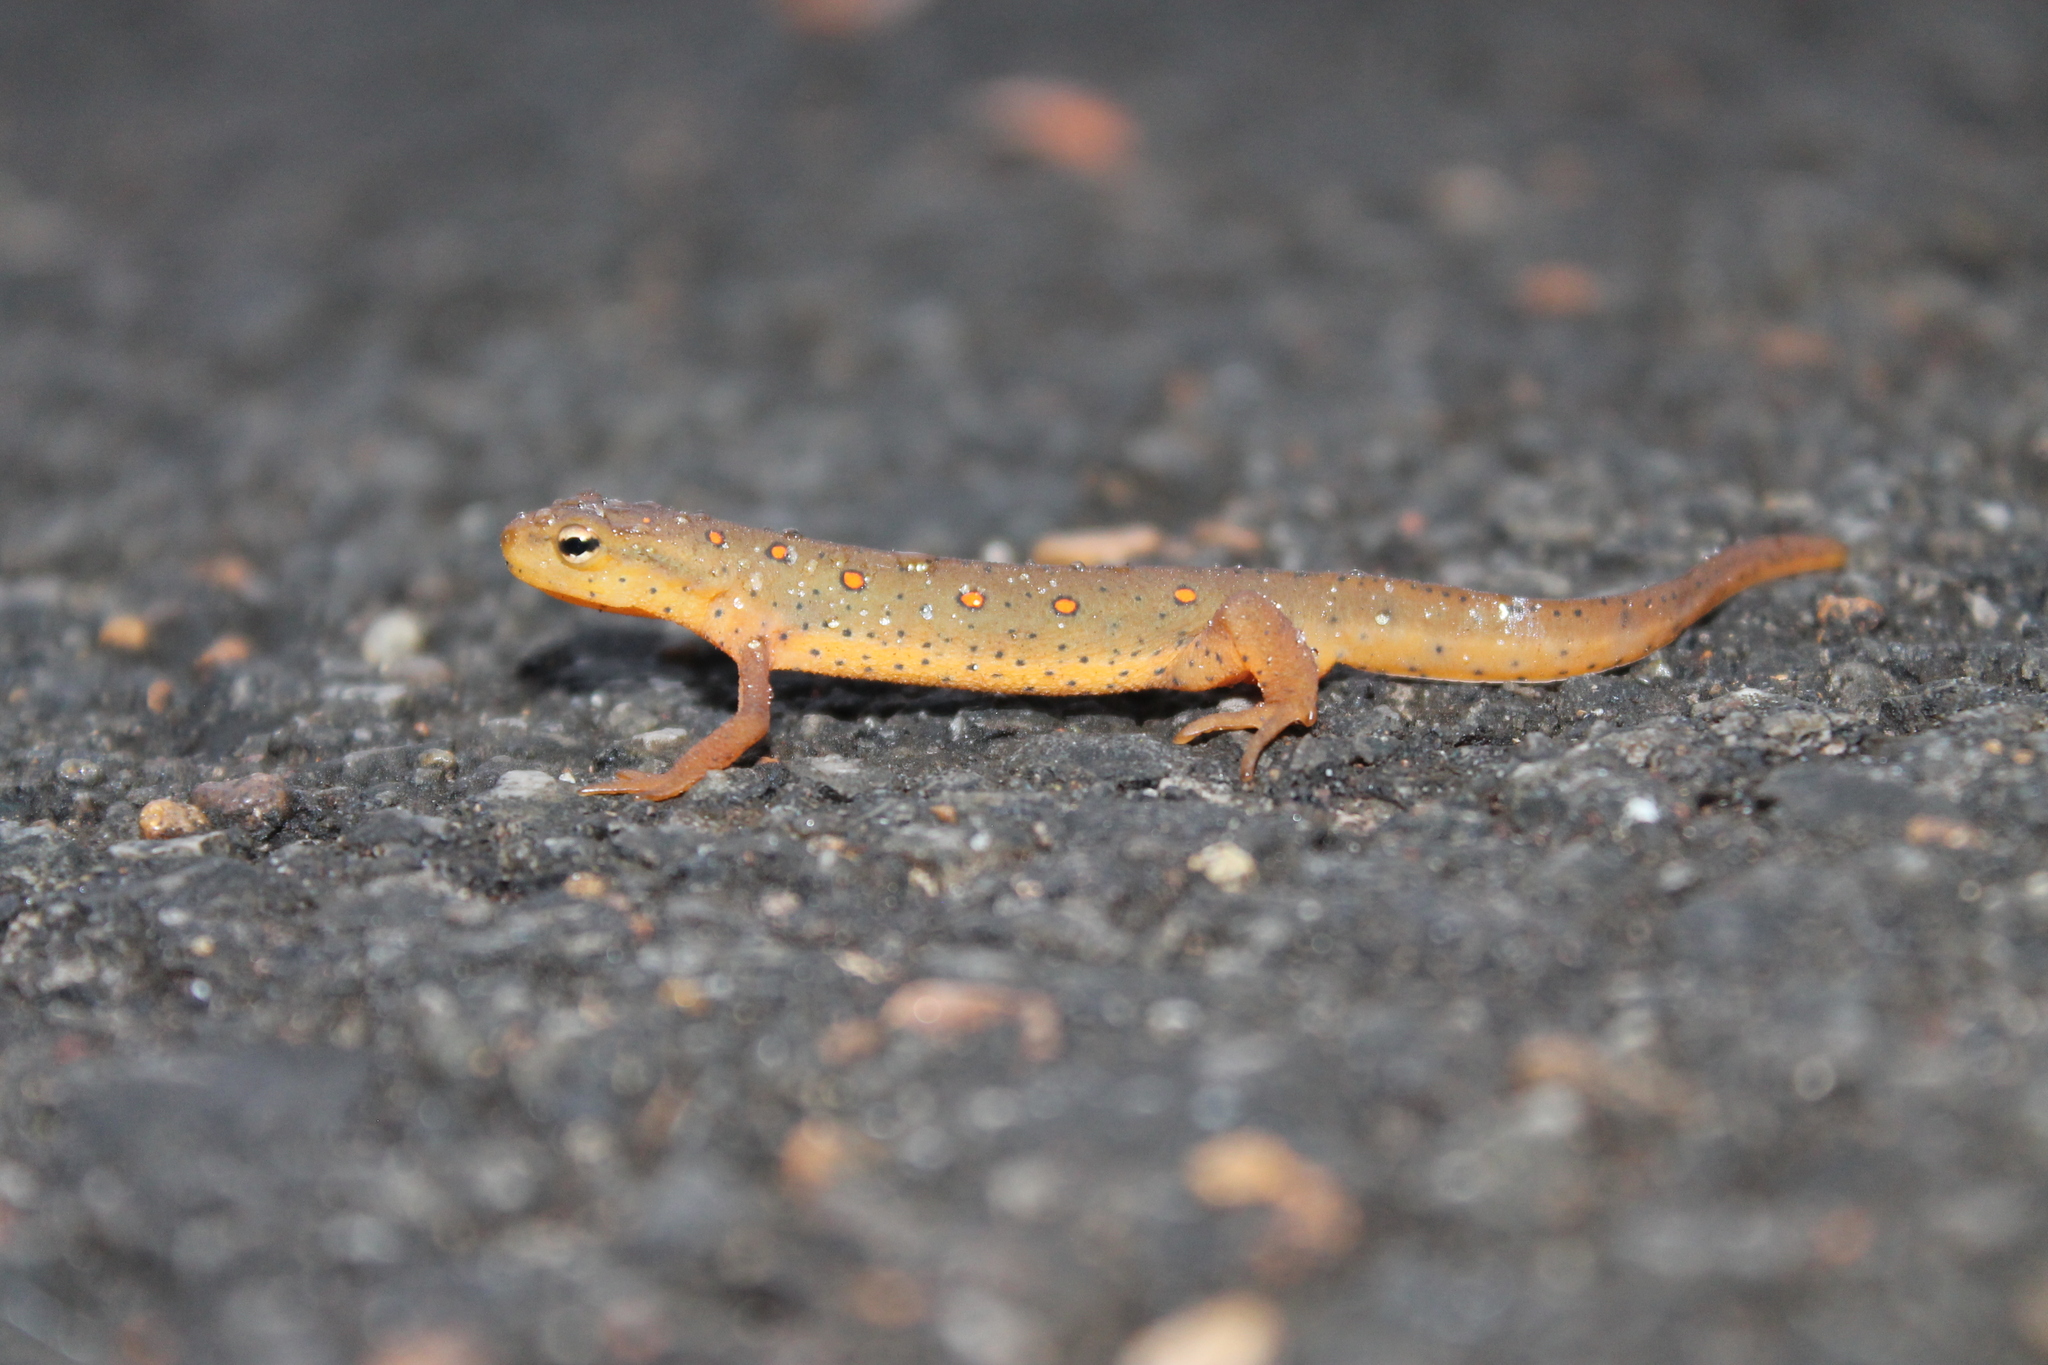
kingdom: Animalia
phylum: Chordata
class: Amphibia
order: Caudata
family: Salamandridae
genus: Notophthalmus
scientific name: Notophthalmus viridescens
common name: Eastern newt
